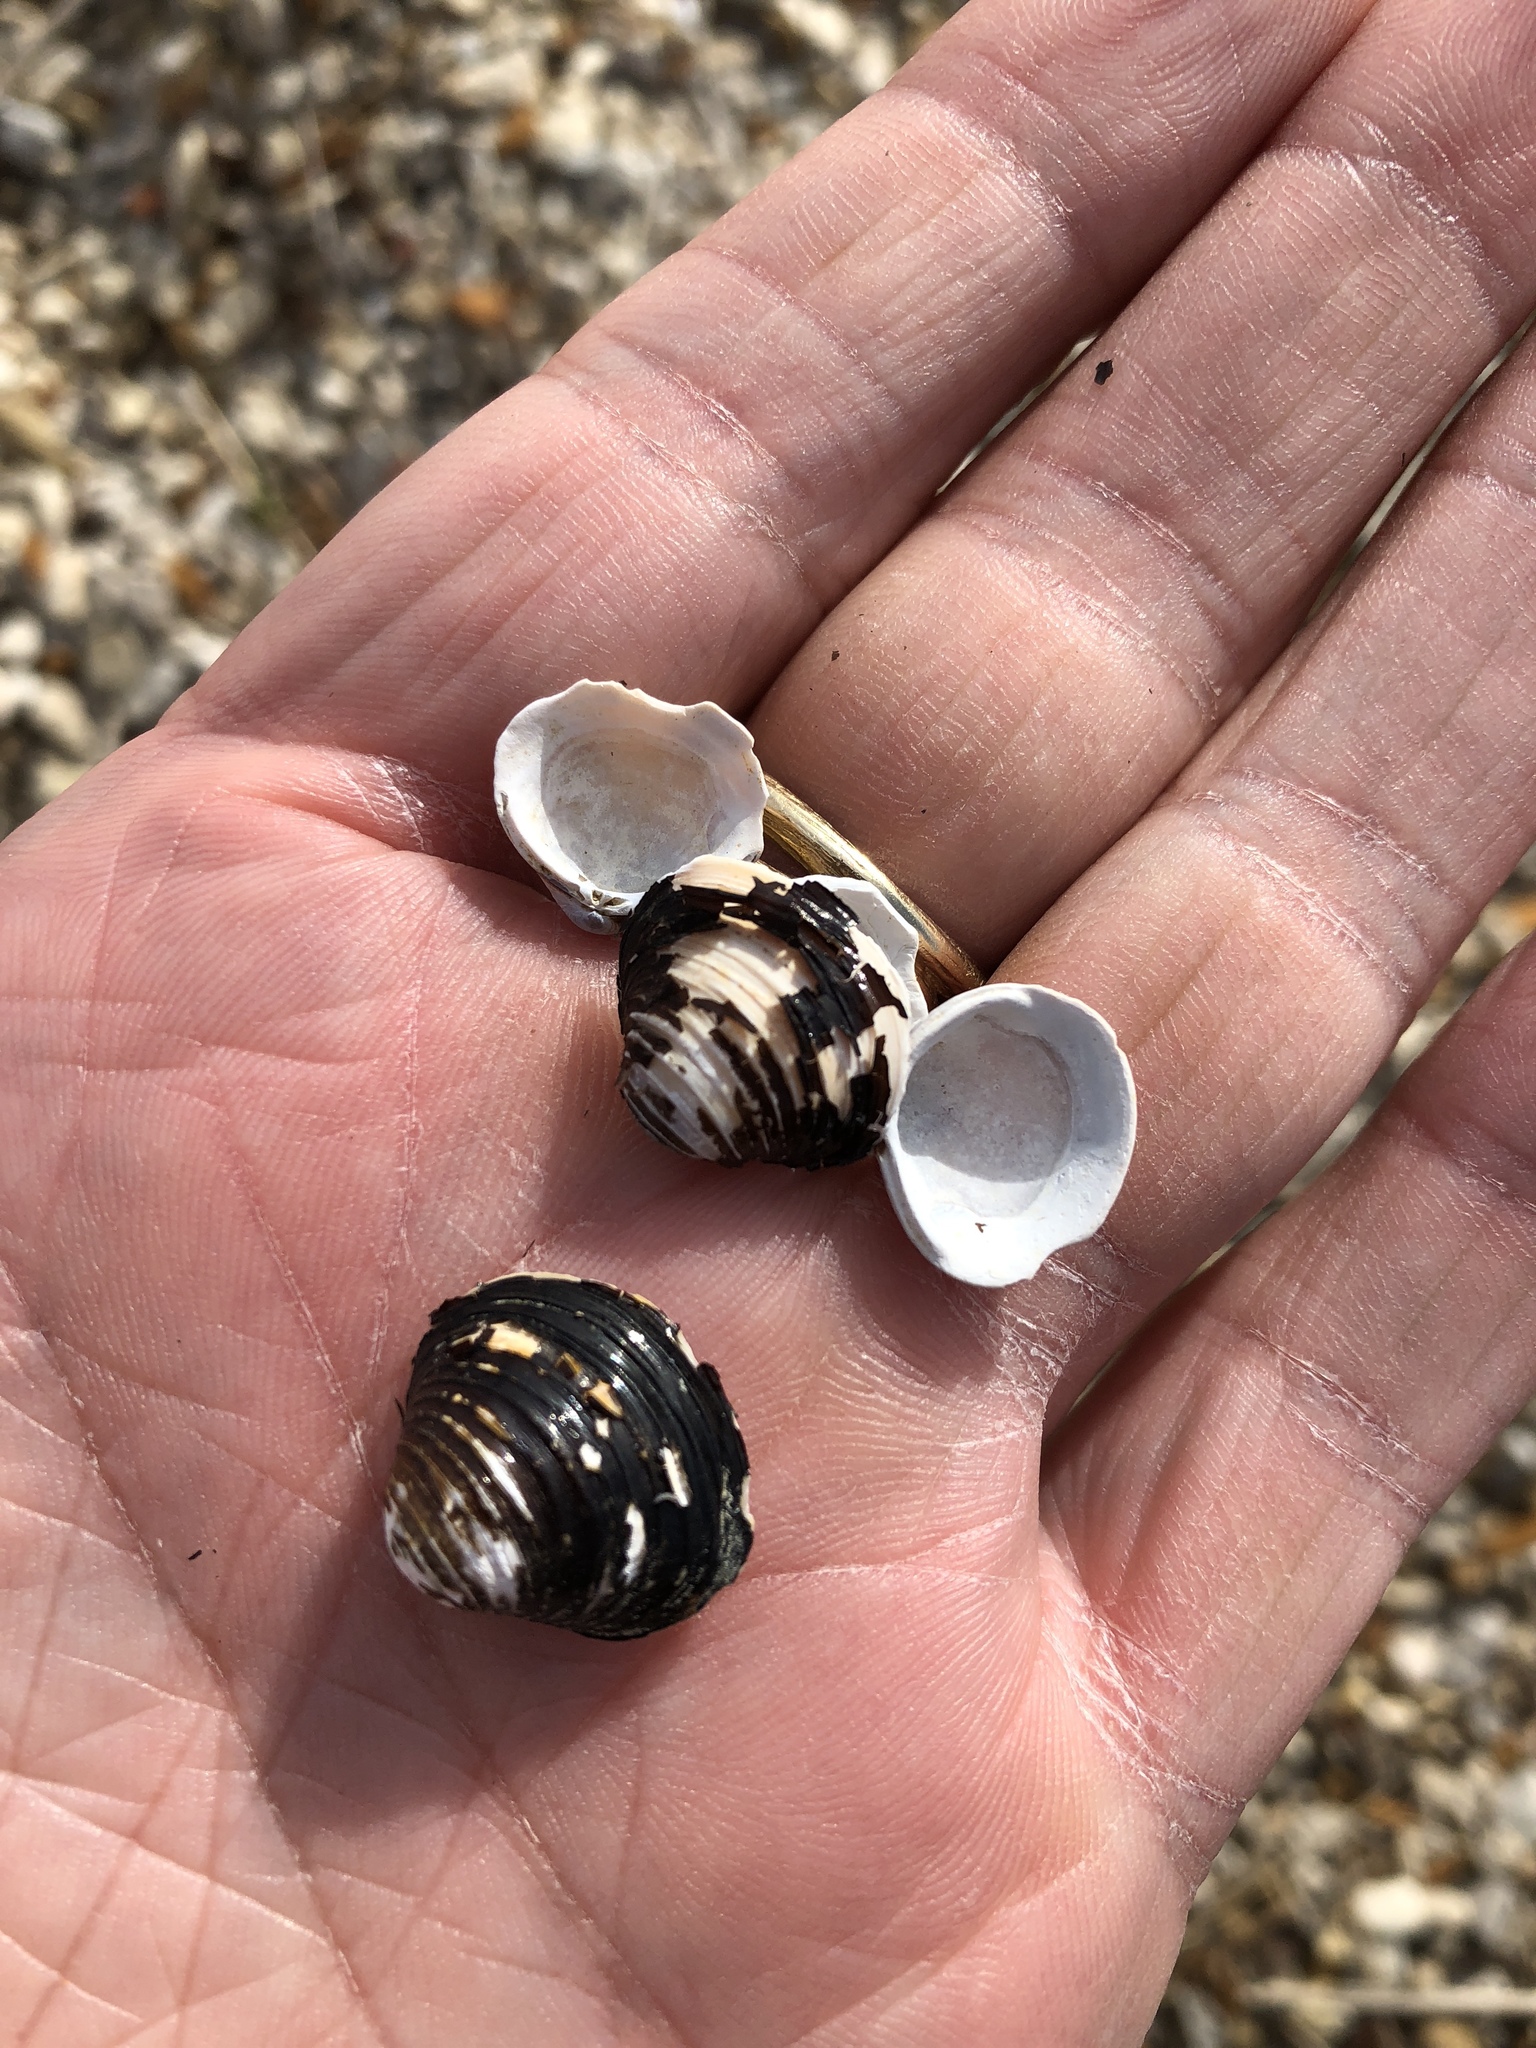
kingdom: Animalia
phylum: Mollusca
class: Bivalvia
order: Venerida
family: Cyrenidae
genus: Corbicula
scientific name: Corbicula fluminea
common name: Asian clam
